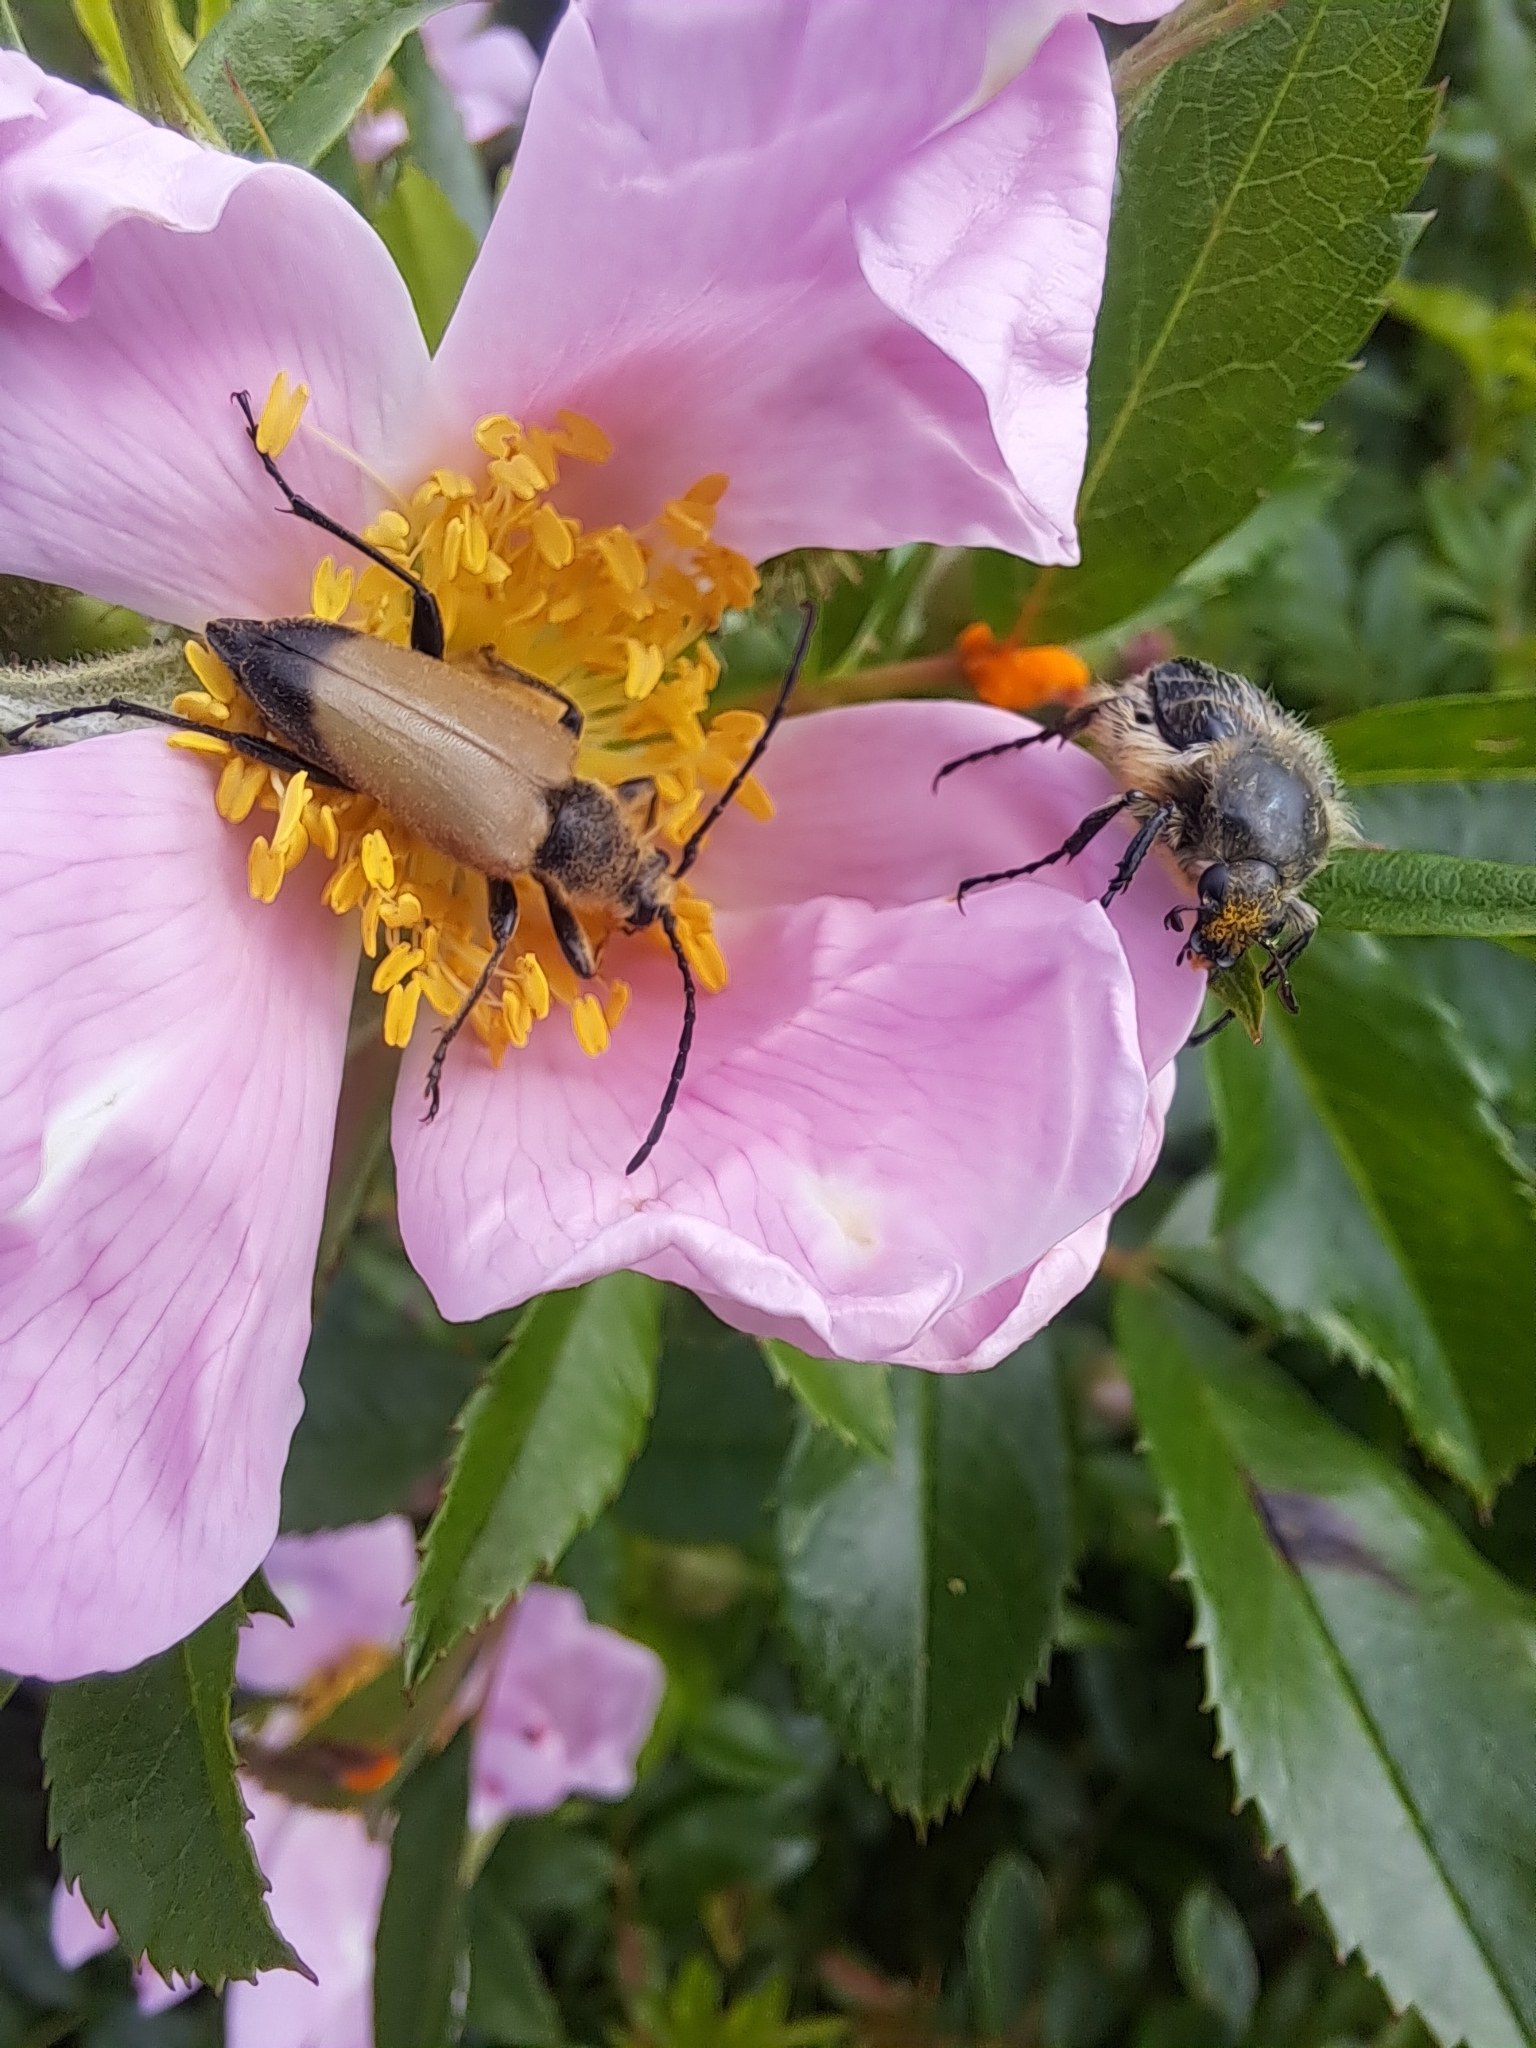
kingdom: Animalia
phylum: Arthropoda
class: Insecta
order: Coleoptera
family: Cerambycidae
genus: Trigonarthris
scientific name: Trigonarthris proxima
